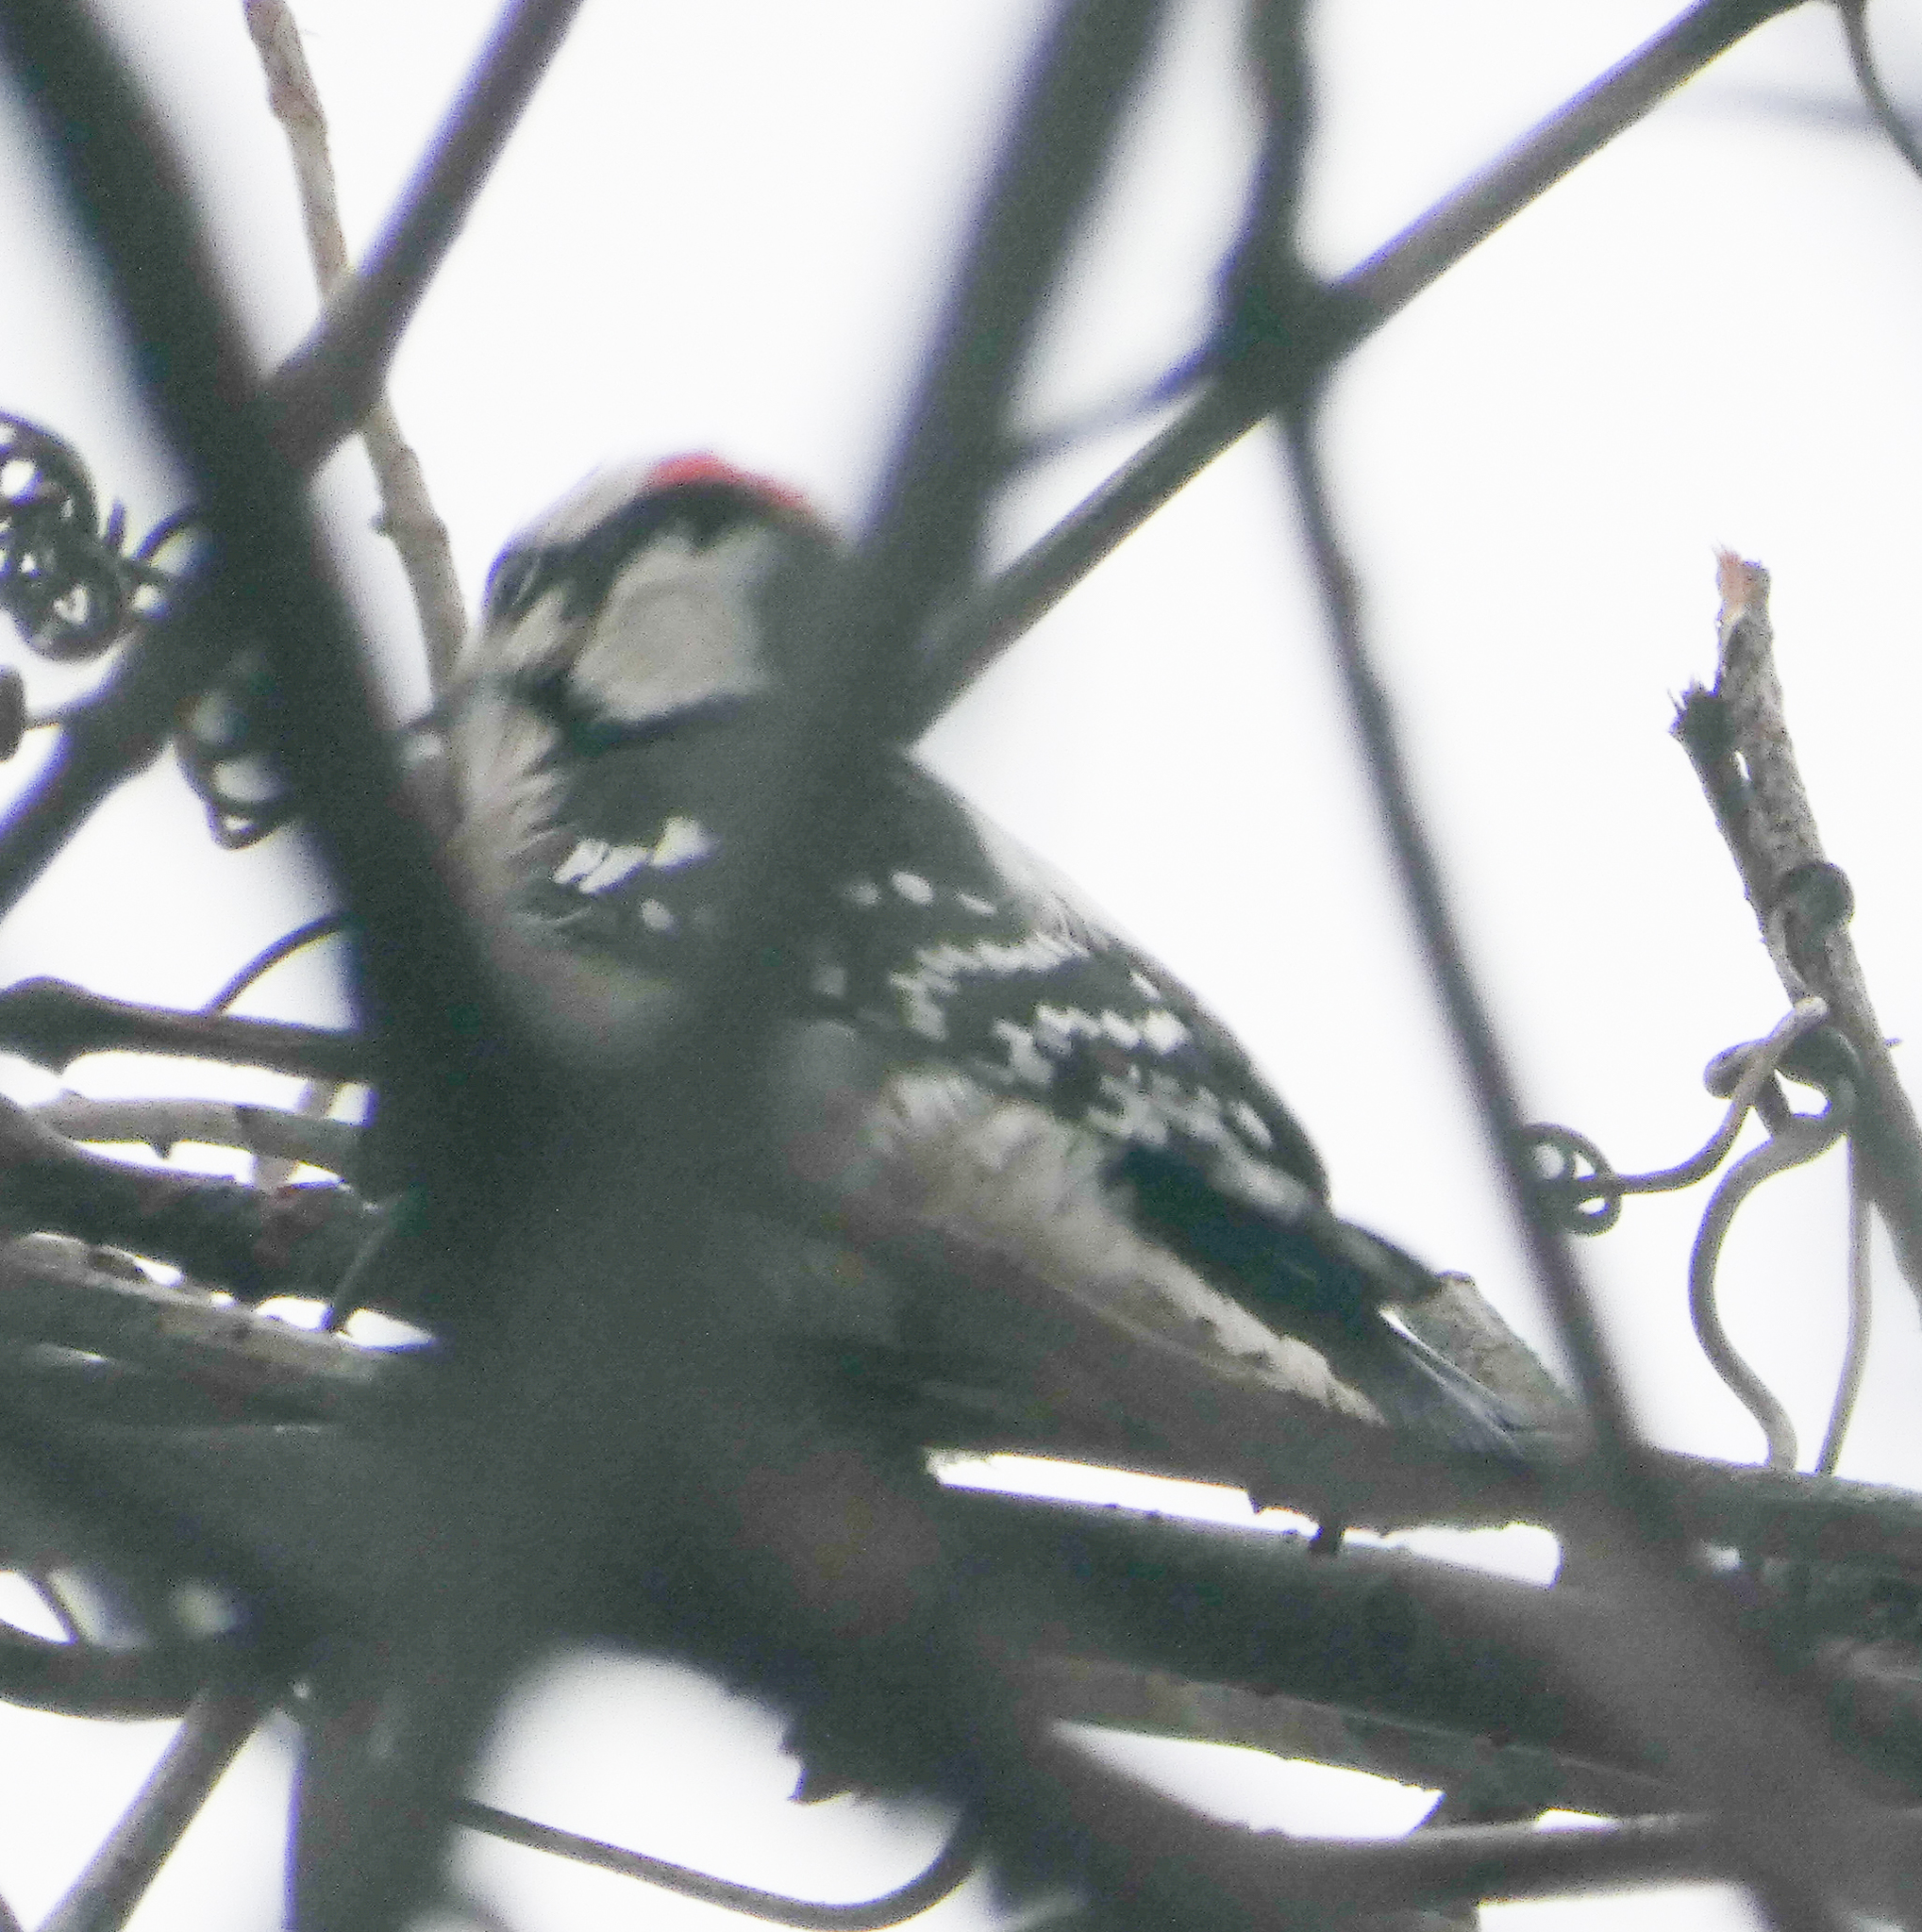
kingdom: Animalia
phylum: Chordata
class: Aves
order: Piciformes
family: Picidae
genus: Dryobates
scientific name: Dryobates pubescens
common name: Downy woodpecker
